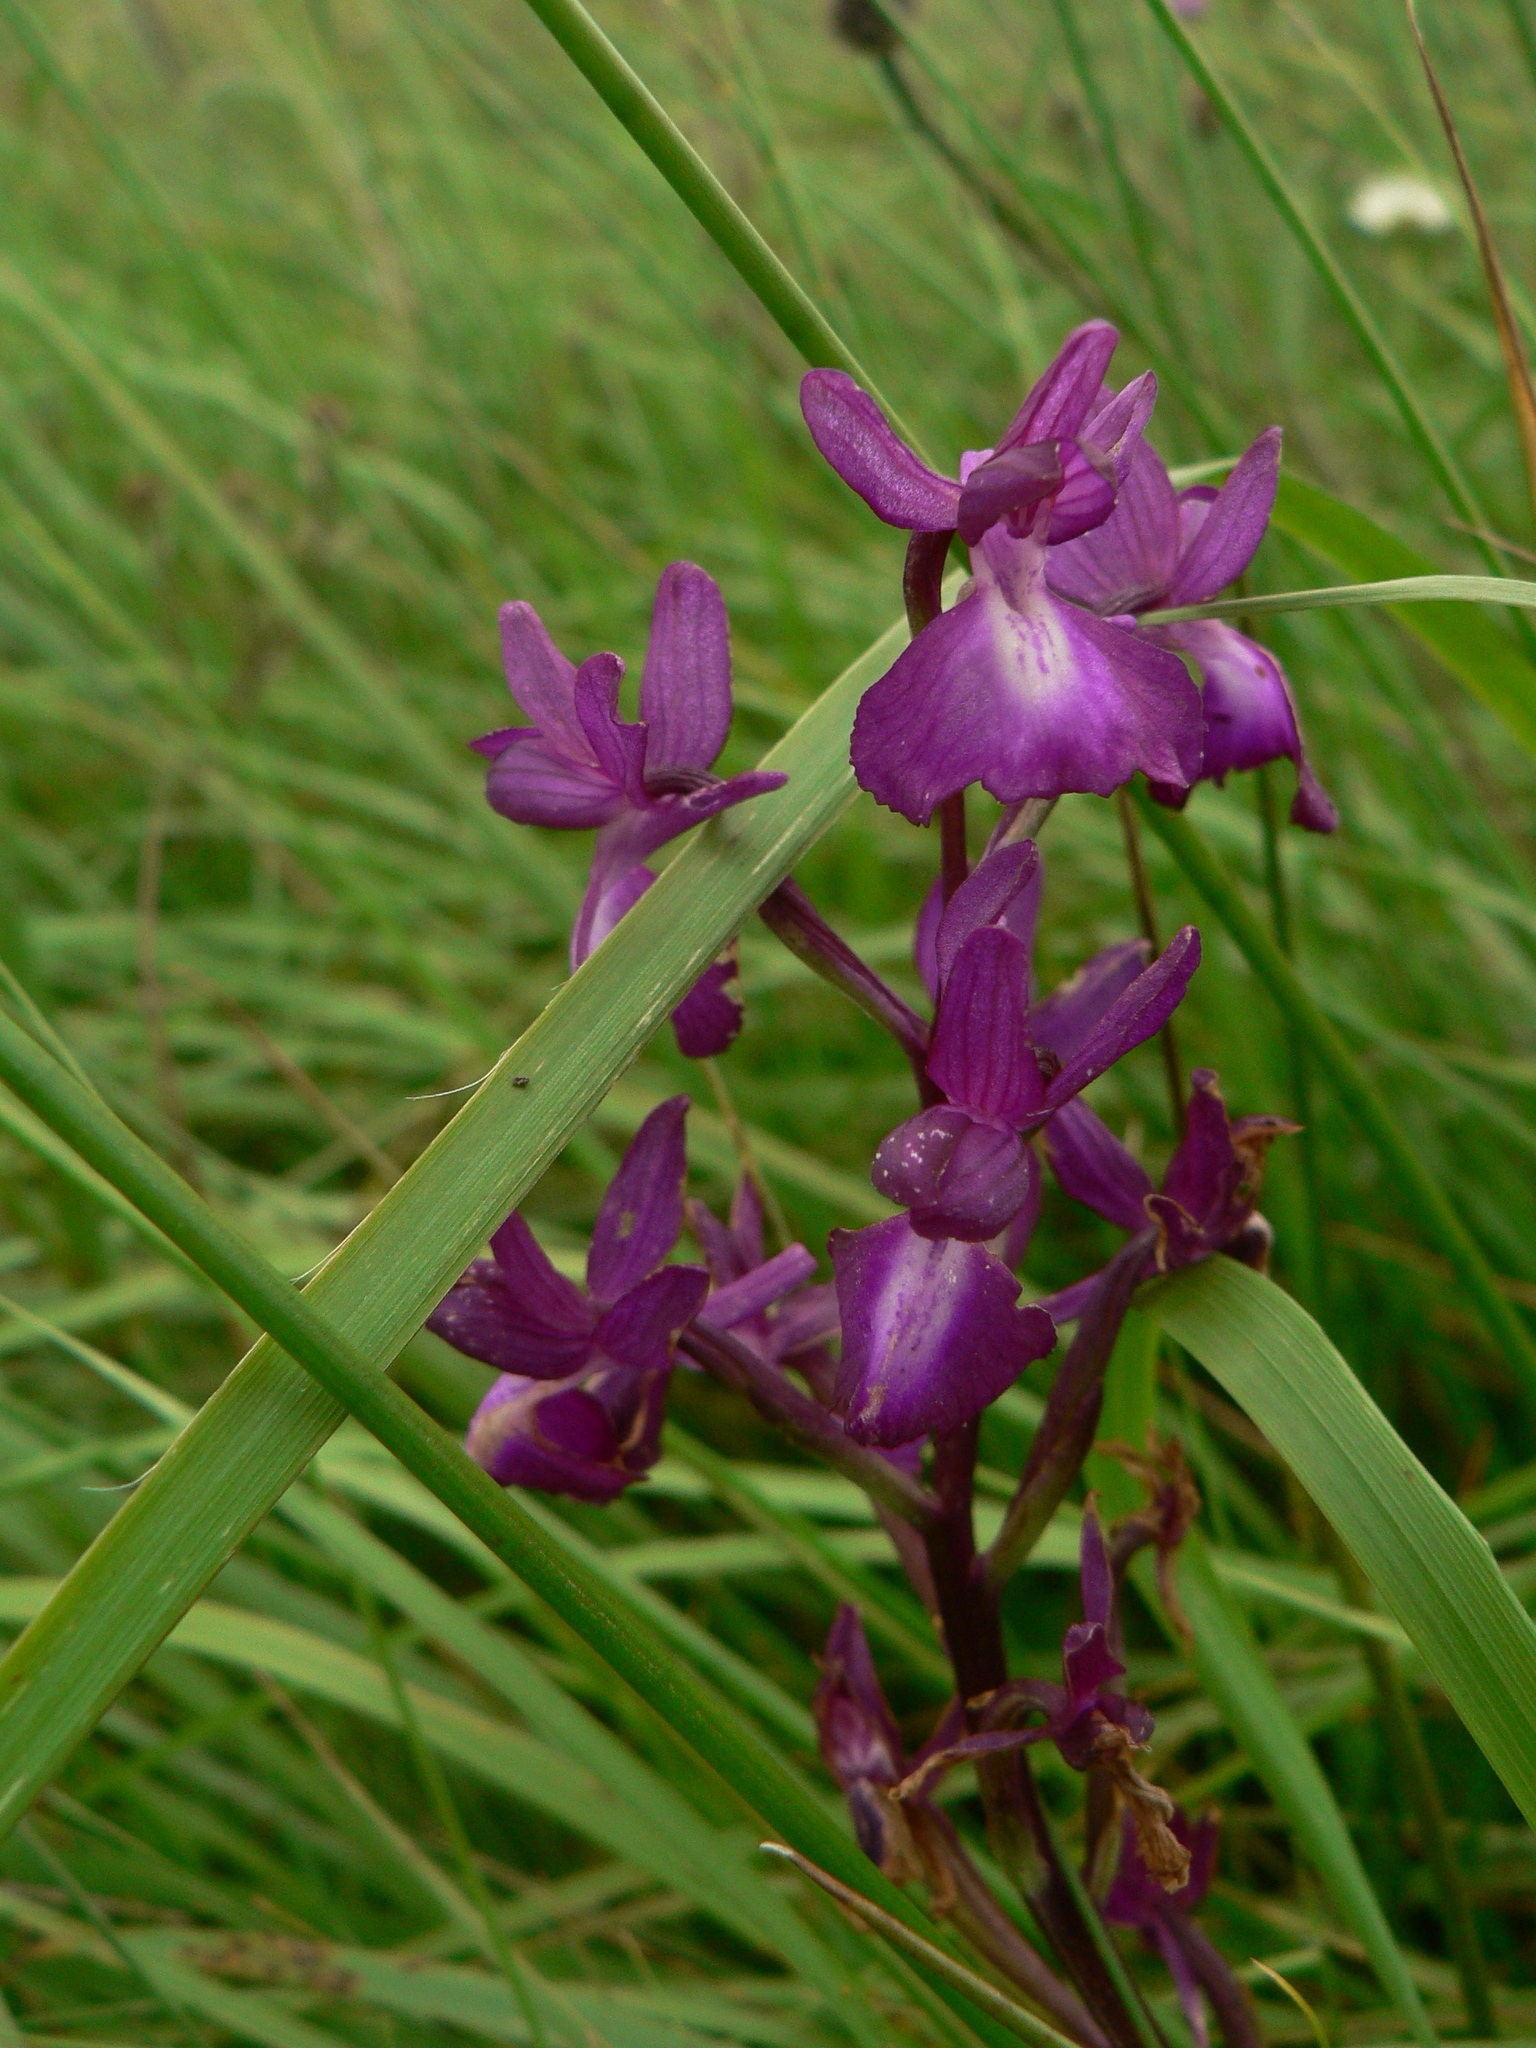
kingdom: Plantae
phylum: Tracheophyta
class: Liliopsida
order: Asparagales
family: Orchidaceae
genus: Anacamptis
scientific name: Anacamptis laxiflora
